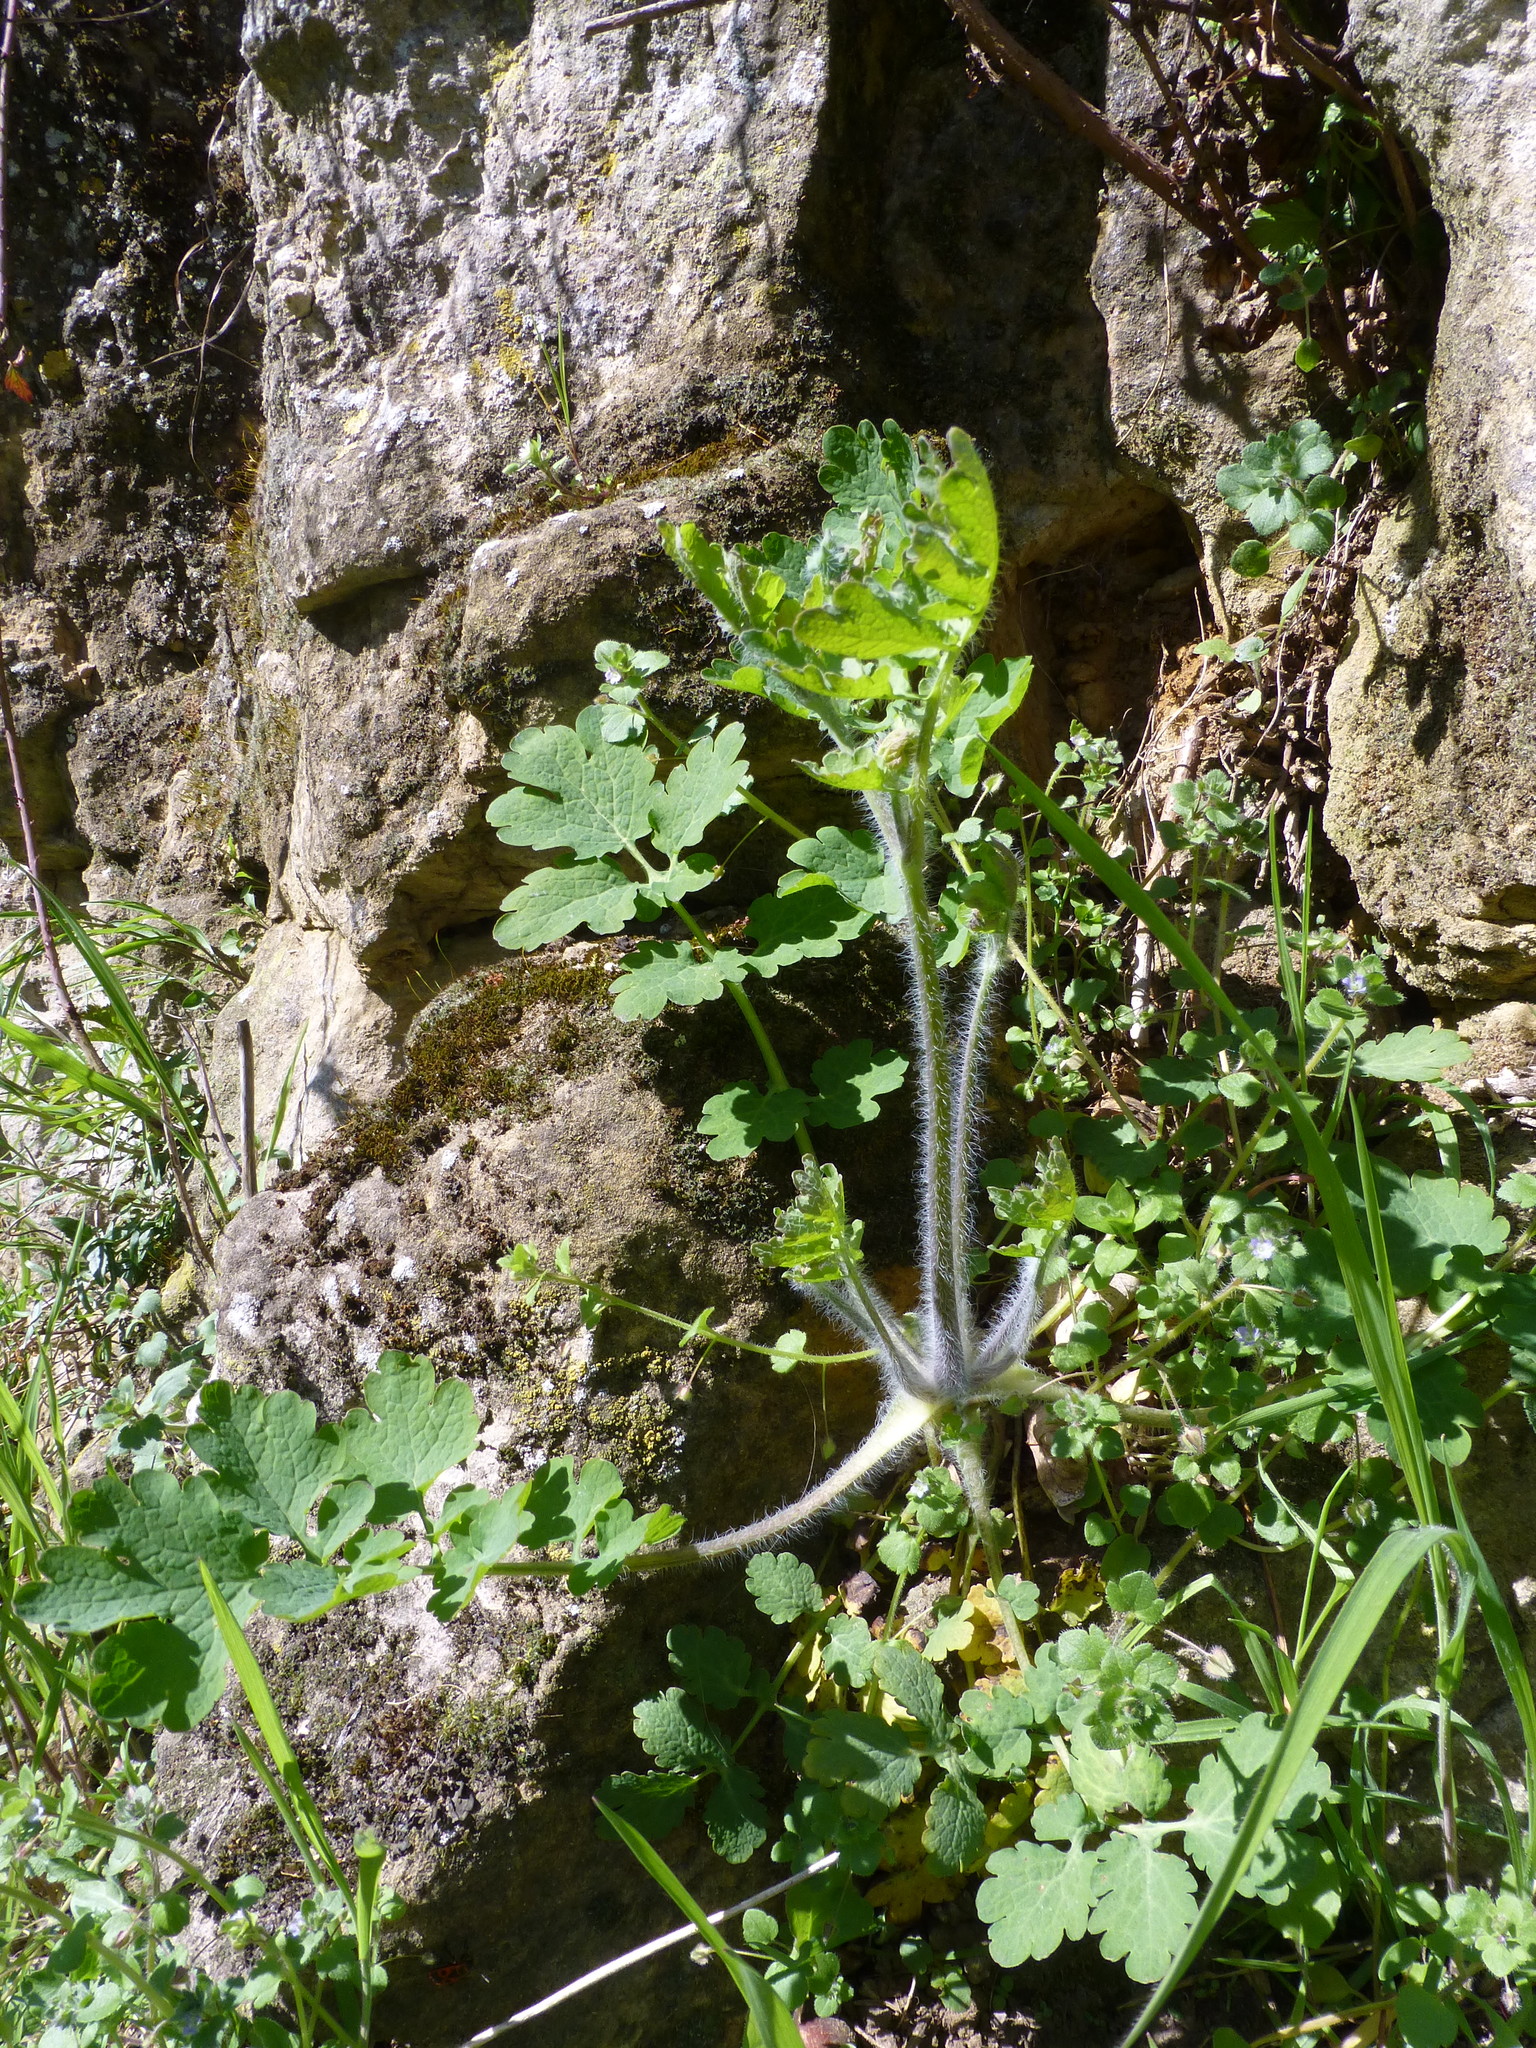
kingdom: Plantae
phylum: Tracheophyta
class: Magnoliopsida
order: Ranunculales
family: Papaveraceae
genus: Chelidonium
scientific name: Chelidonium majus
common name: Greater celandine
